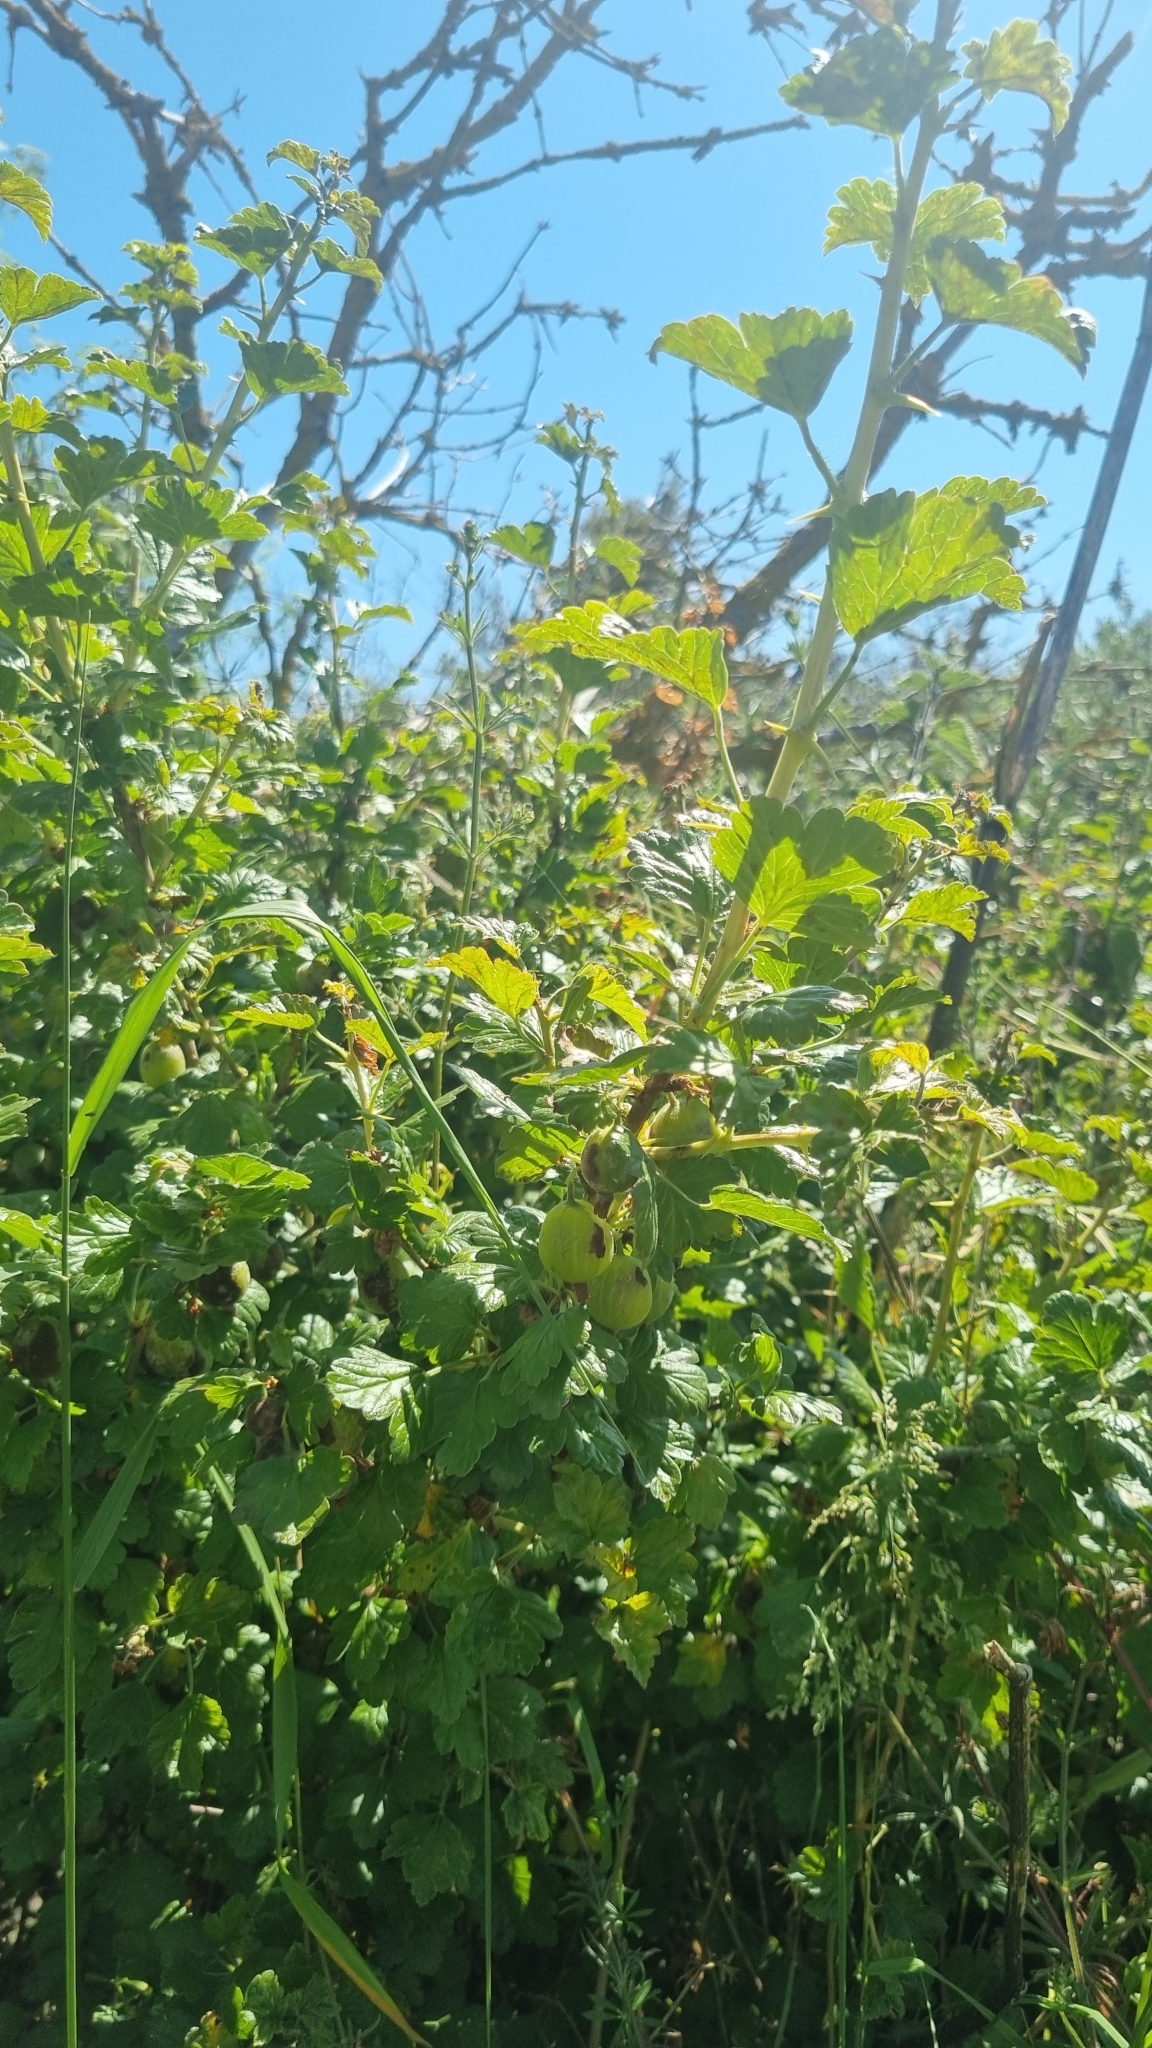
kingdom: Plantae
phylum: Tracheophyta
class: Magnoliopsida
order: Saxifragales
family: Grossulariaceae
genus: Ribes
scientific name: Ribes uva-crispa
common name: Gooseberry
